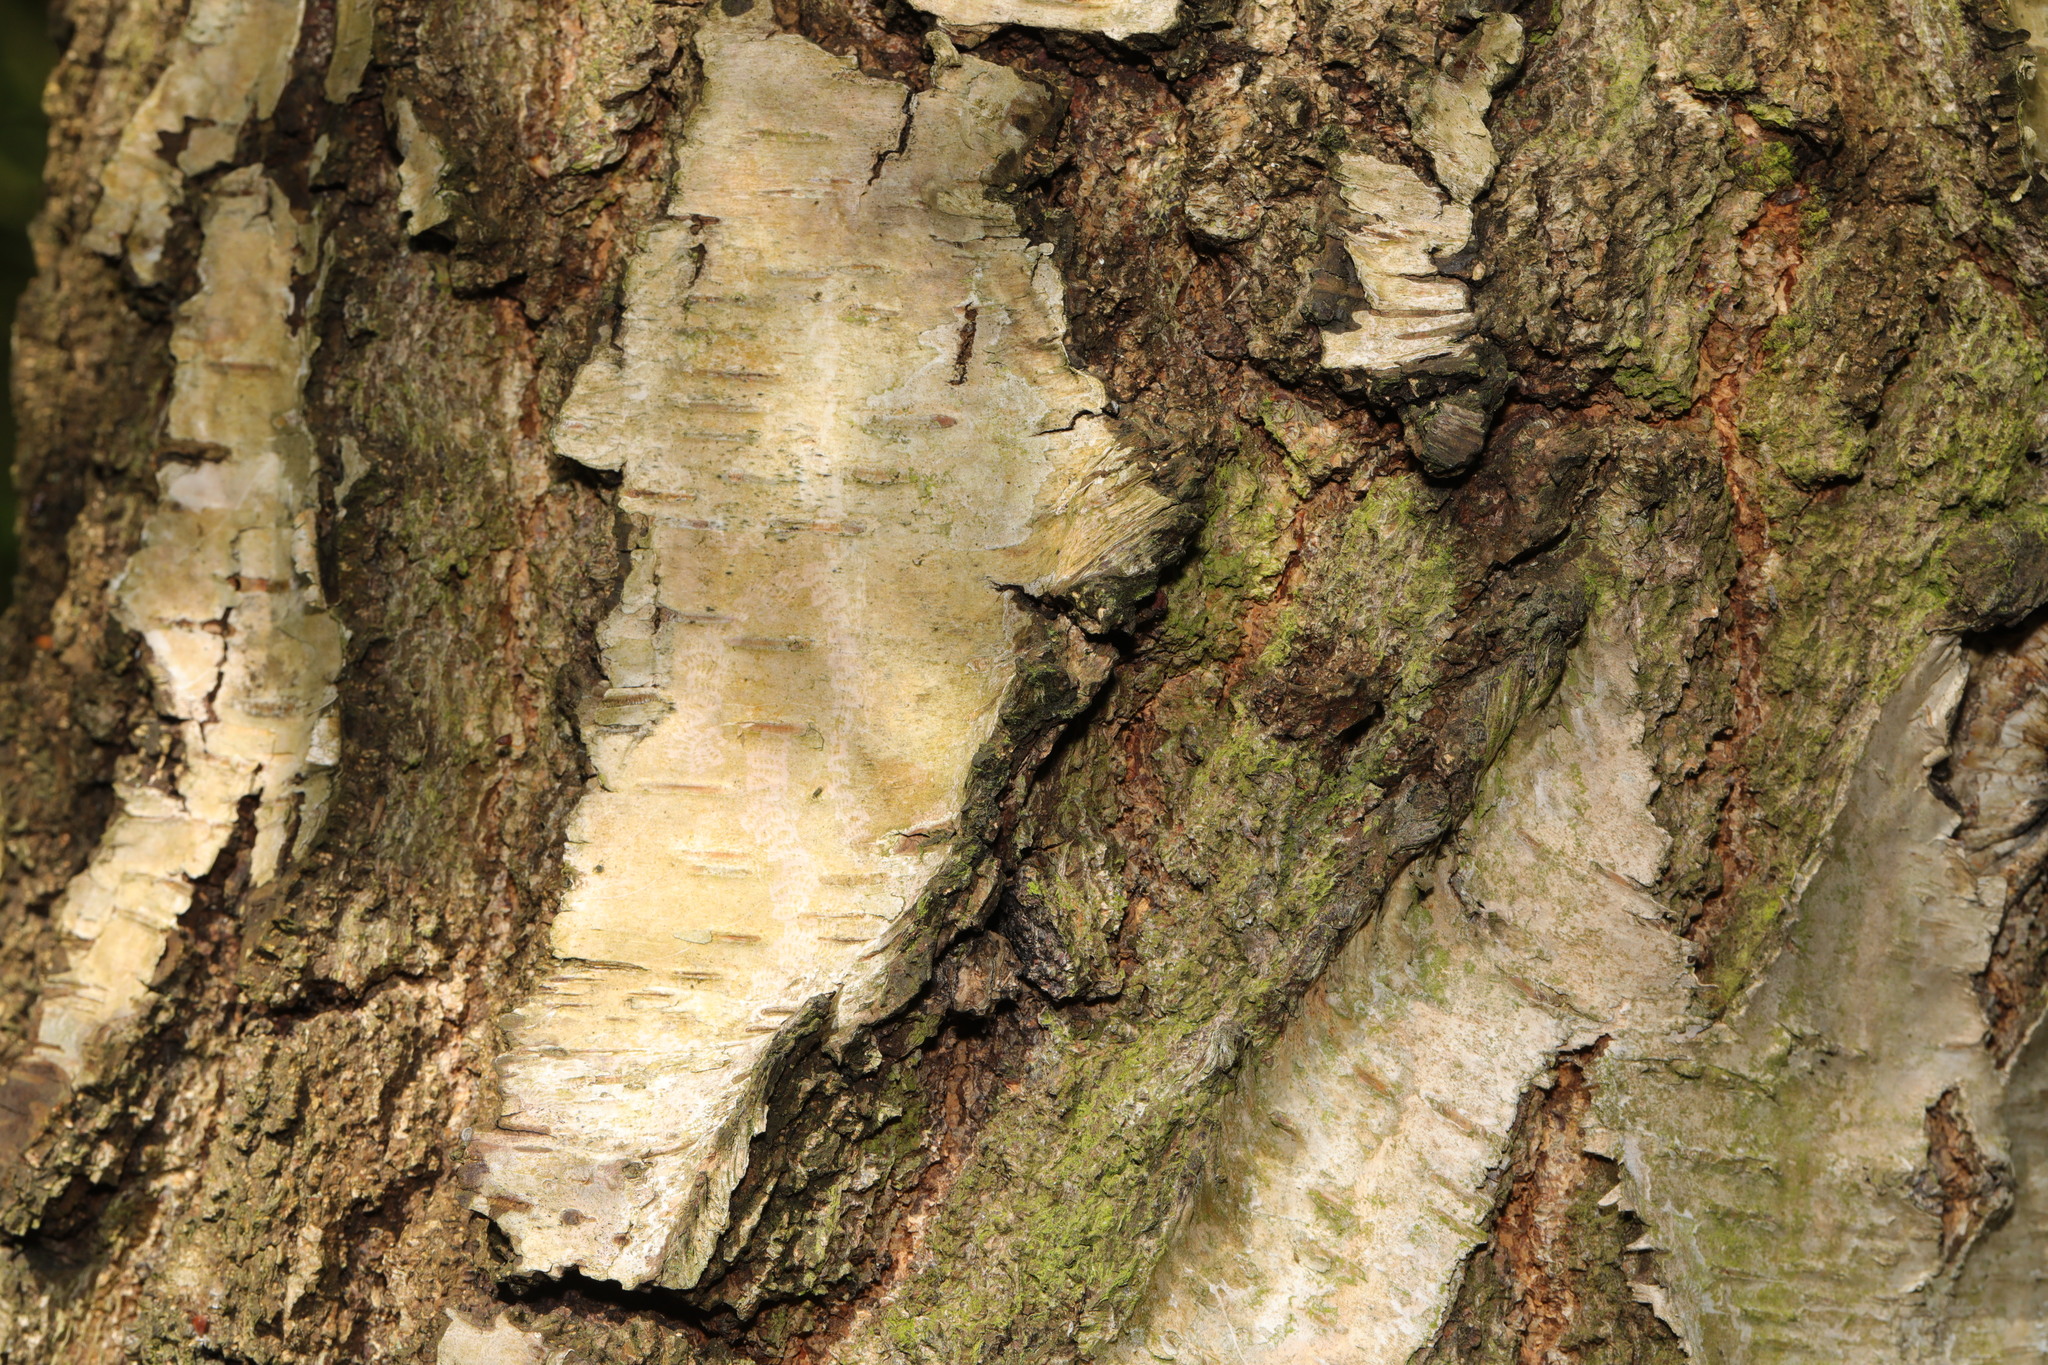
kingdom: Plantae
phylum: Tracheophyta
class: Magnoliopsida
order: Fagales
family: Betulaceae
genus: Betula
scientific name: Betula pendula
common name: Silver birch
